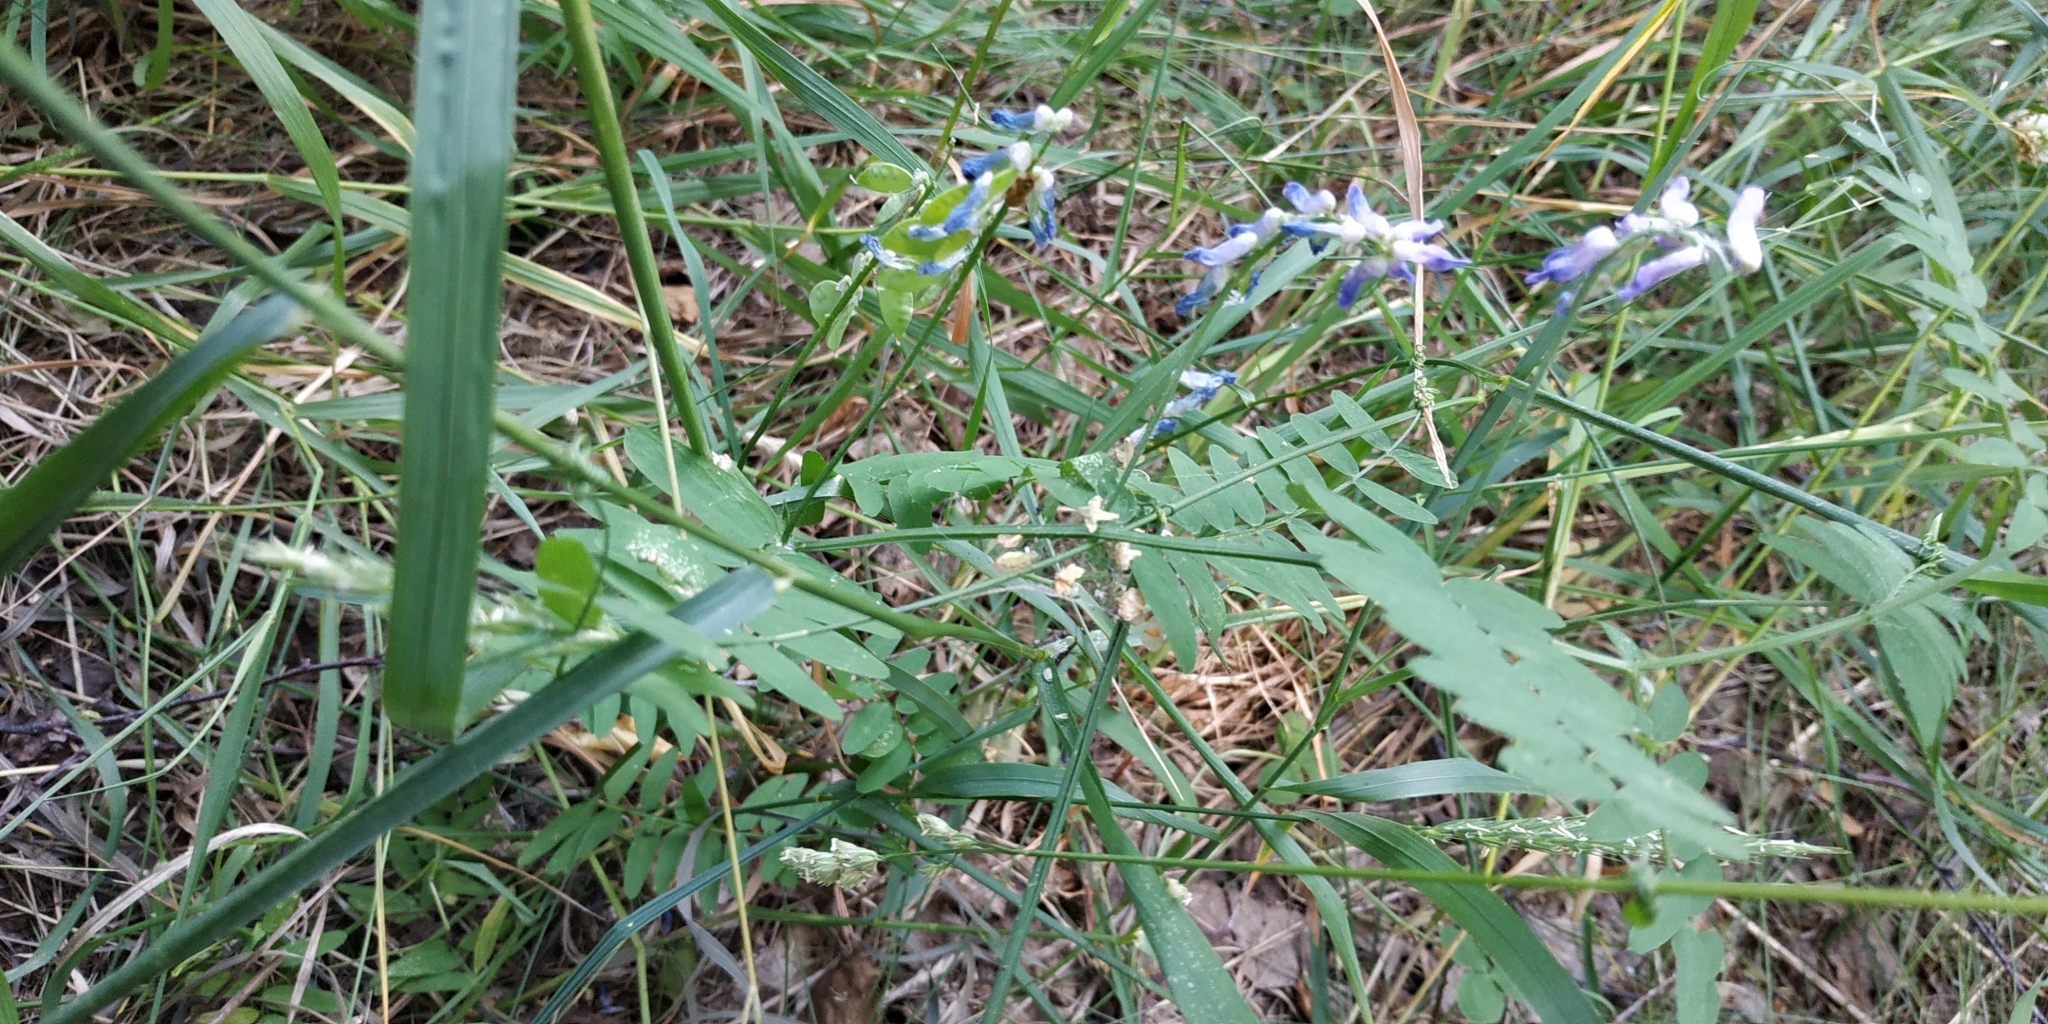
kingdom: Plantae
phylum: Tracheophyta
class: Magnoliopsida
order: Fabales
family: Fabaceae
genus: Vicia
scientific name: Vicia cracca
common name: Bird vetch
